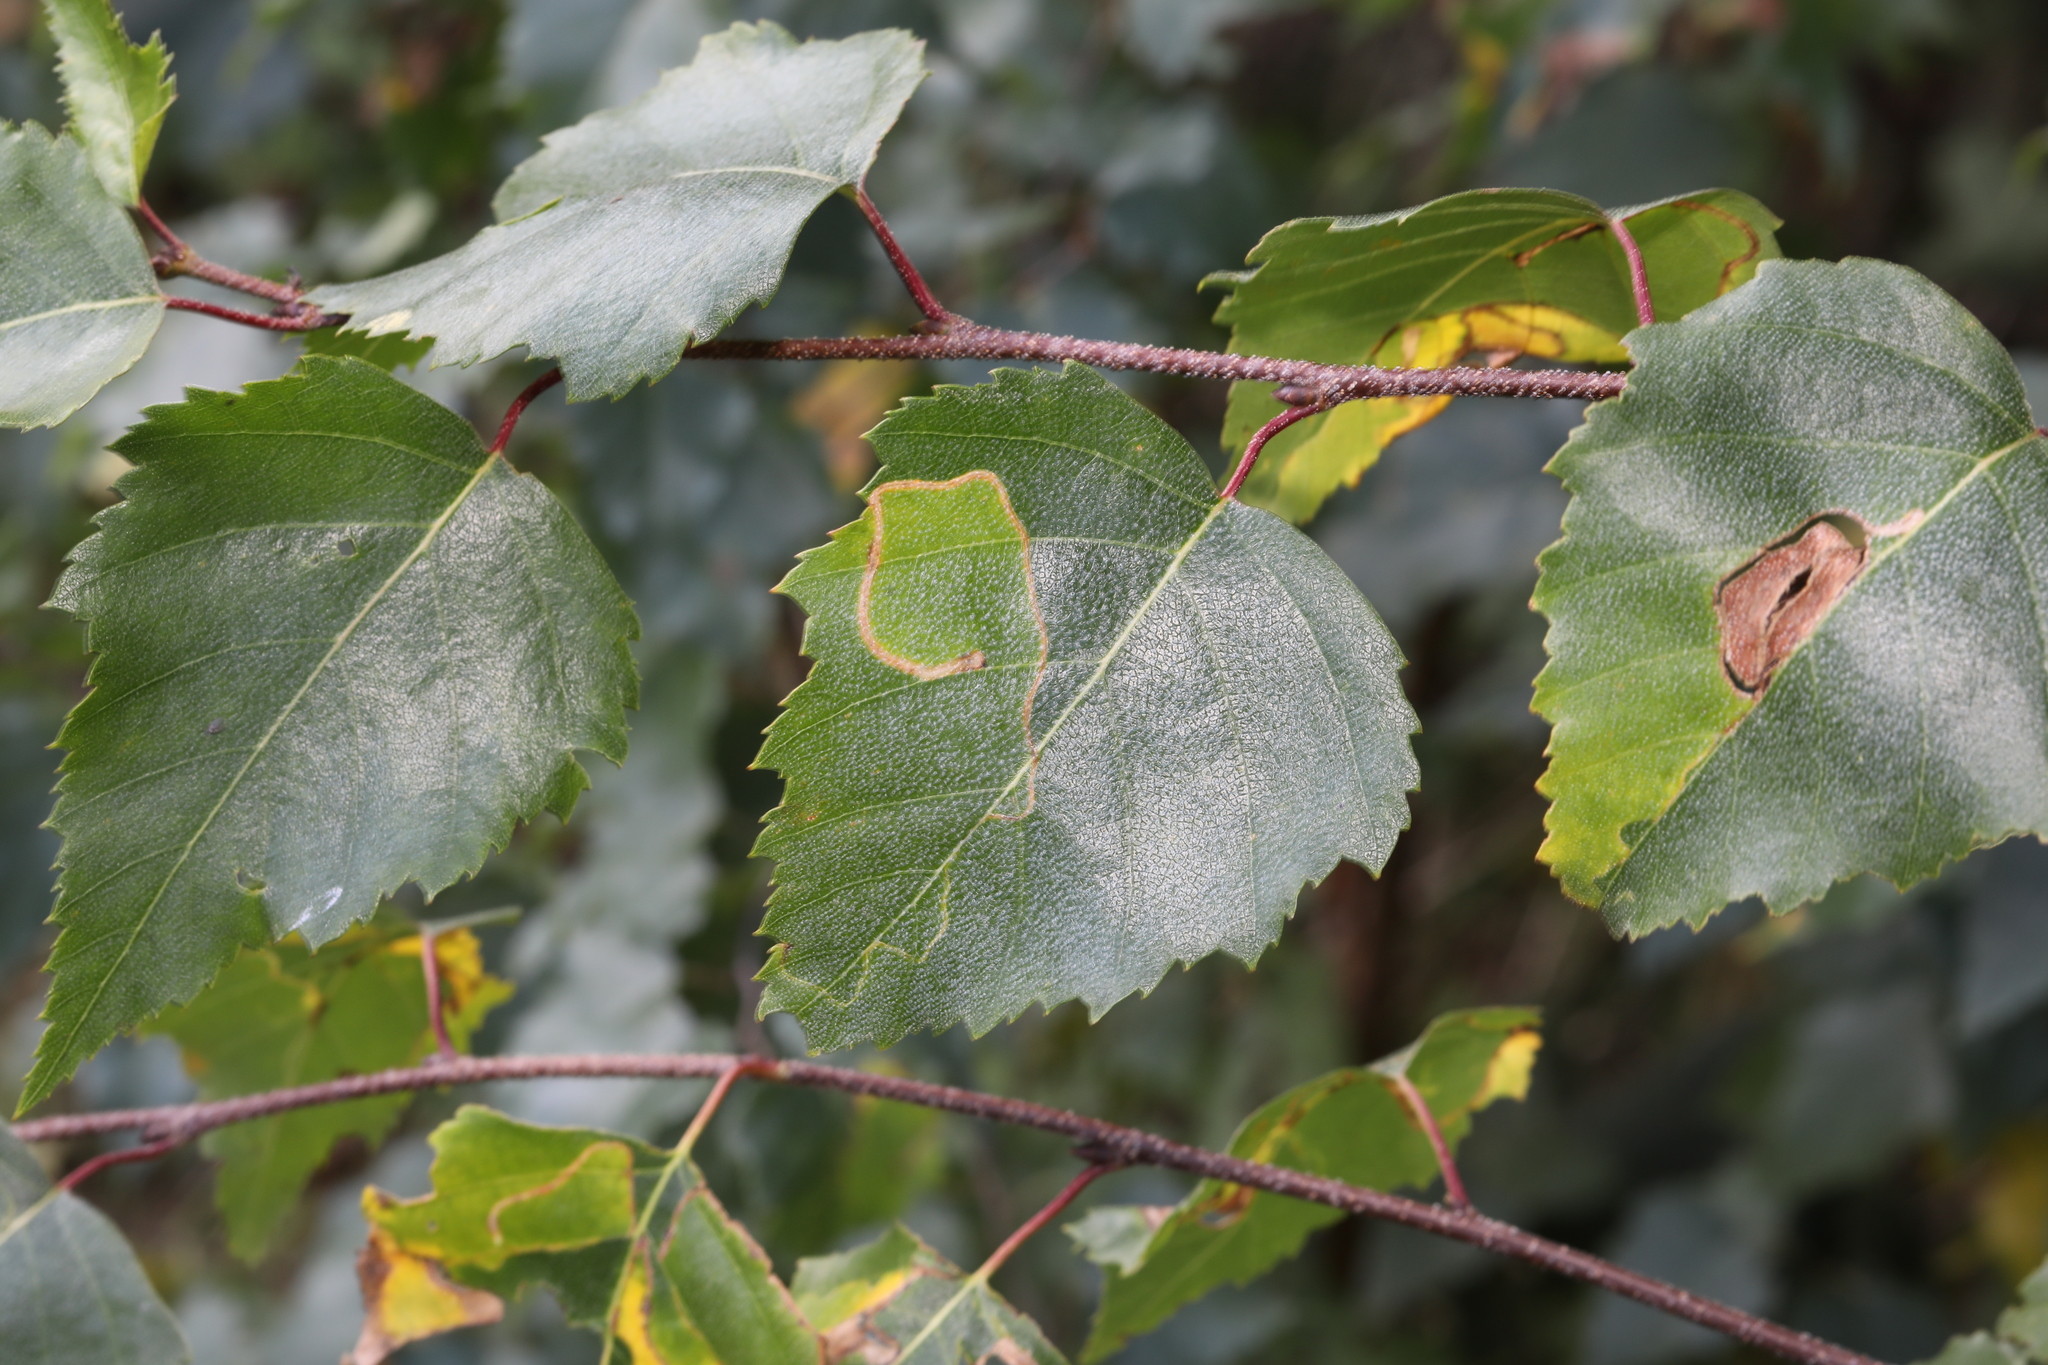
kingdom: Plantae
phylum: Tracheophyta
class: Magnoliopsida
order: Fagales
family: Betulaceae
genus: Betula
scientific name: Betula pendula
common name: Silver birch
